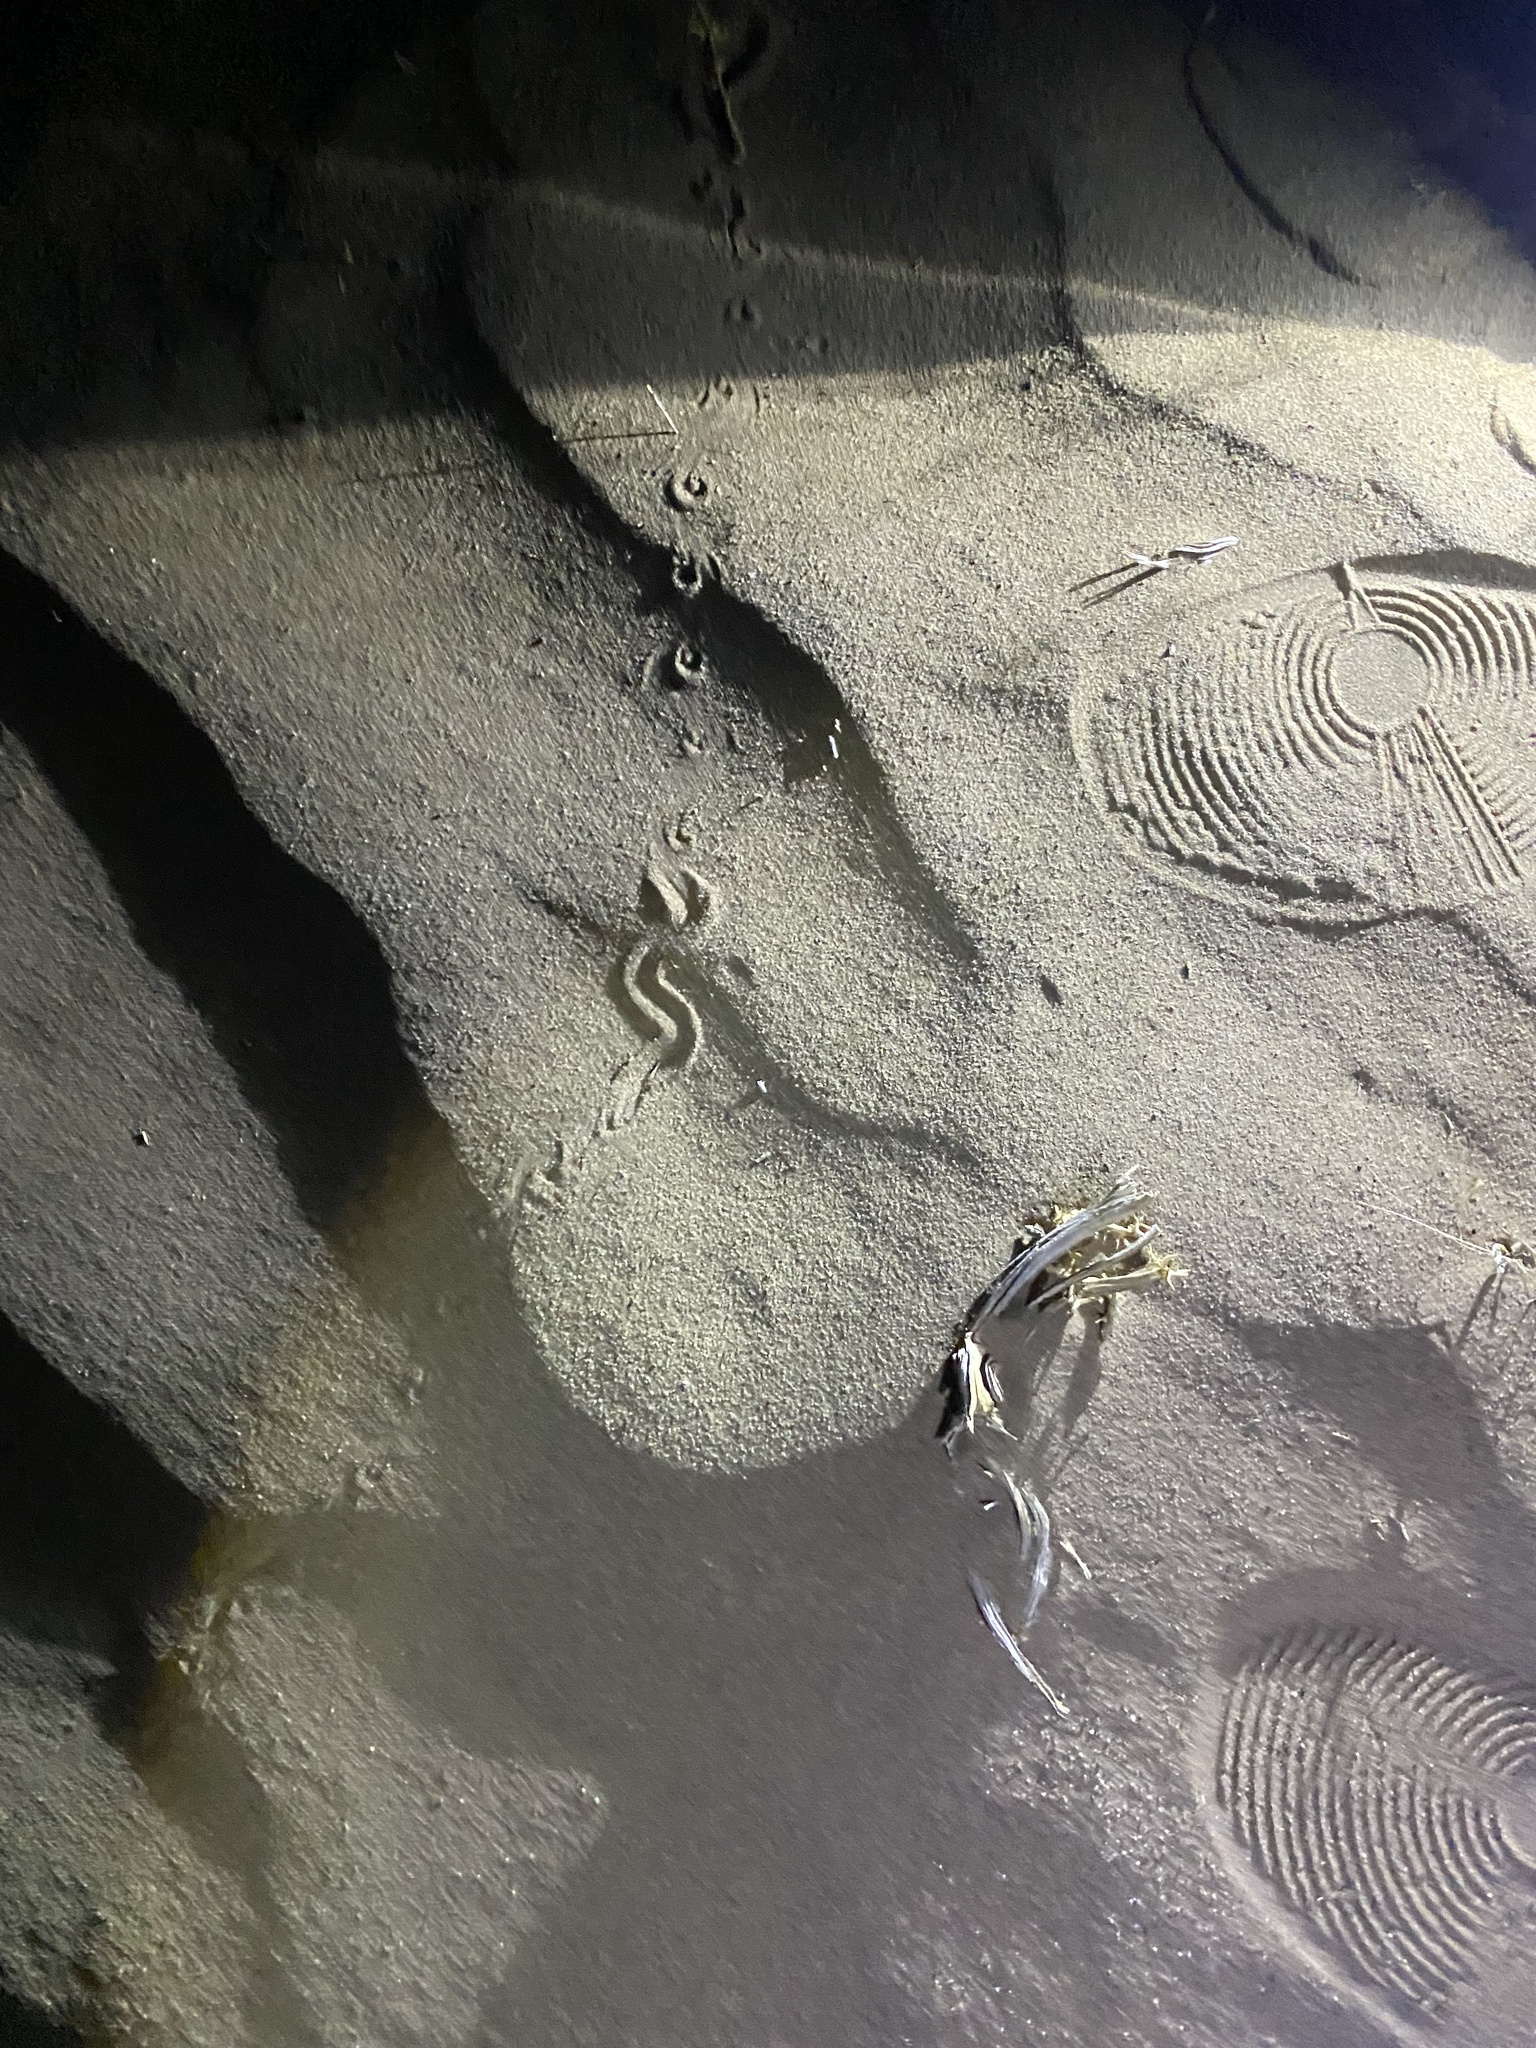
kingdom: Animalia
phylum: Chordata
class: Squamata
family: Scincidae
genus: Ophiomorus
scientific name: Ophiomorus maranjabensis
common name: Maranjab’s snake skink
